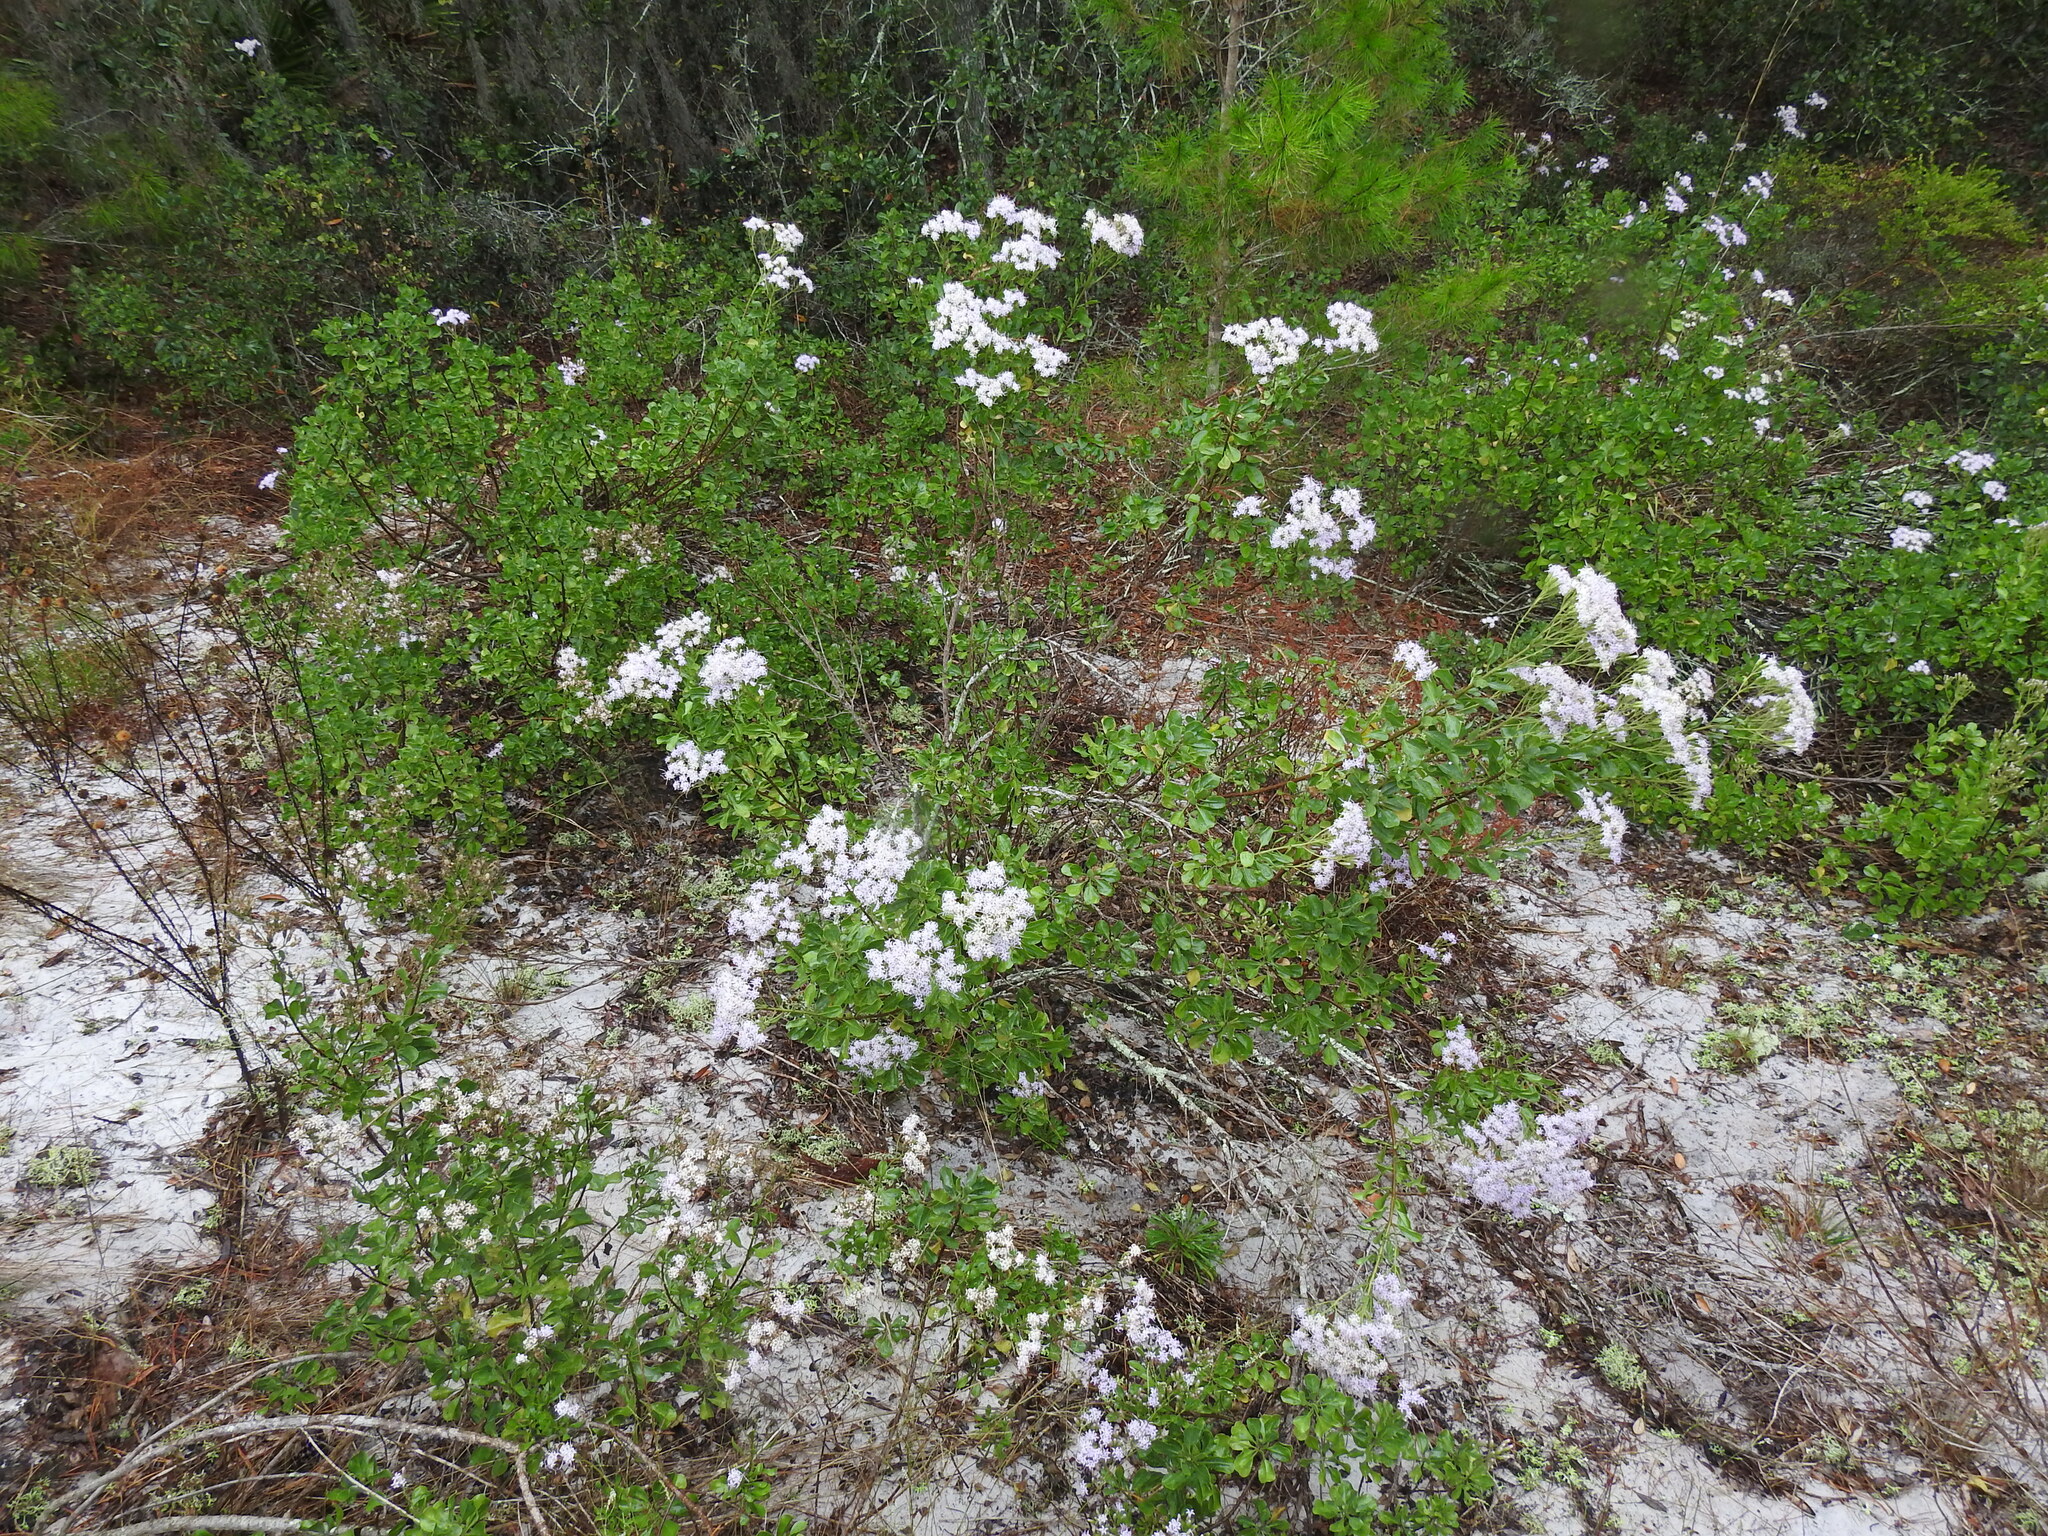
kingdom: Plantae
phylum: Tracheophyta
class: Magnoliopsida
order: Asterales
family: Asteraceae
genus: Garberia
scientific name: Garberia heterophylla
